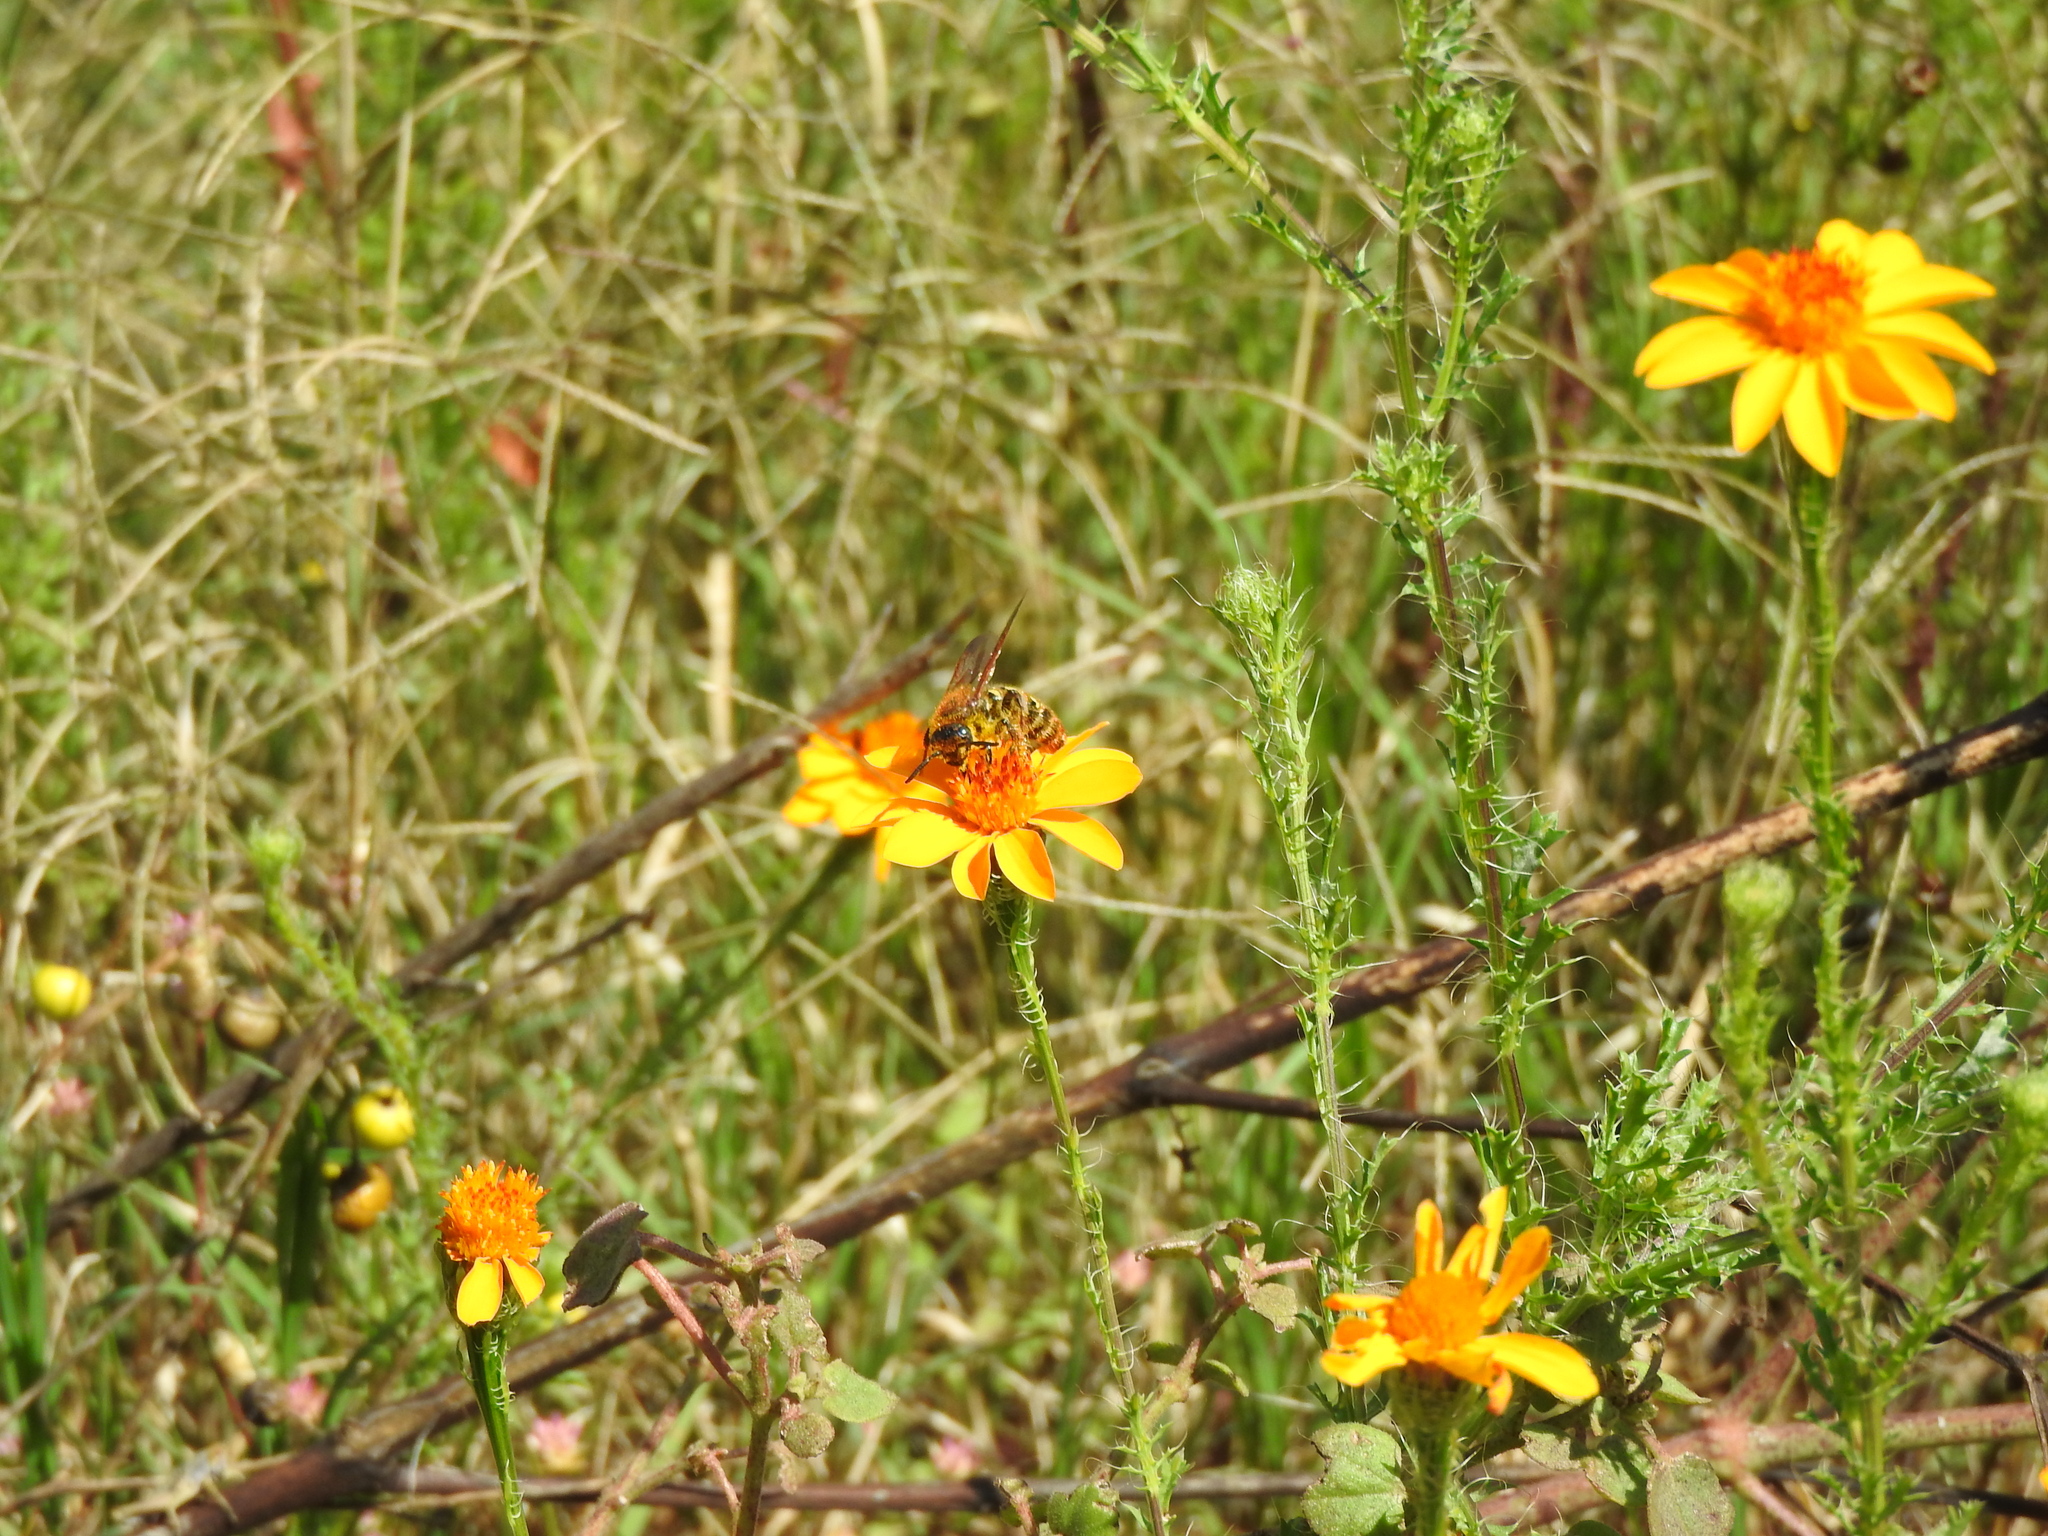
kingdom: Plantae
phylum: Tracheophyta
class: Magnoliopsida
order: Asterales
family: Asteraceae
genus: Adenophyllum
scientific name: Adenophyllum cancellatum
